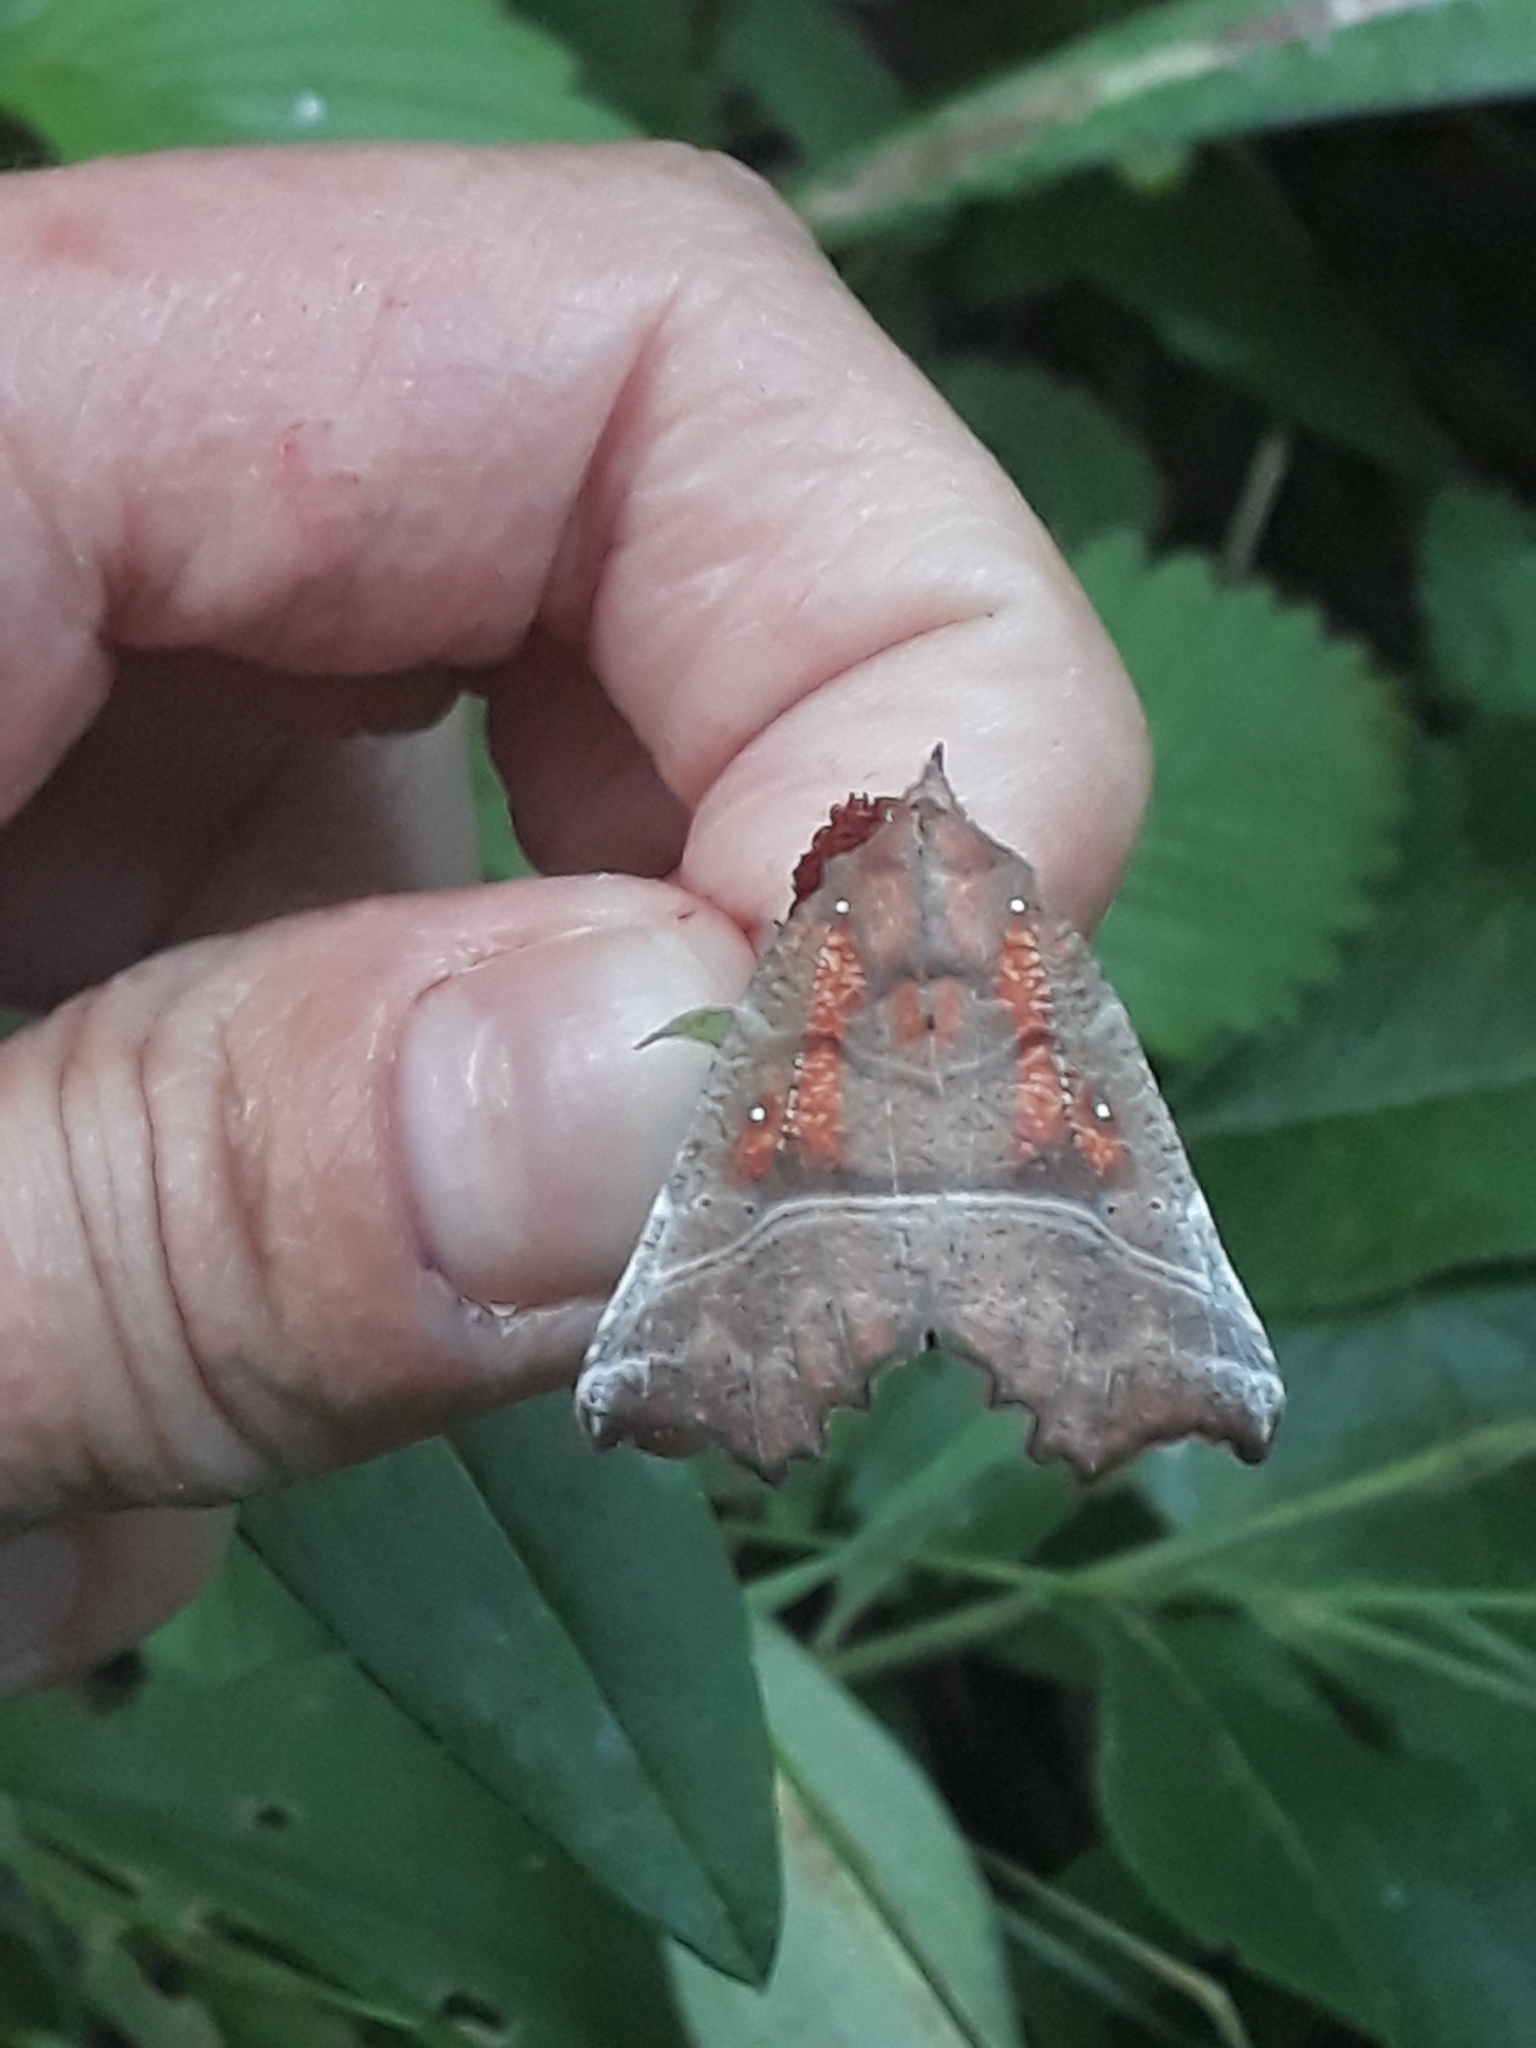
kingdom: Animalia
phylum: Arthropoda
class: Insecta
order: Lepidoptera
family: Erebidae
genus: Scoliopteryx
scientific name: Scoliopteryx libatrix
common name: Herald
